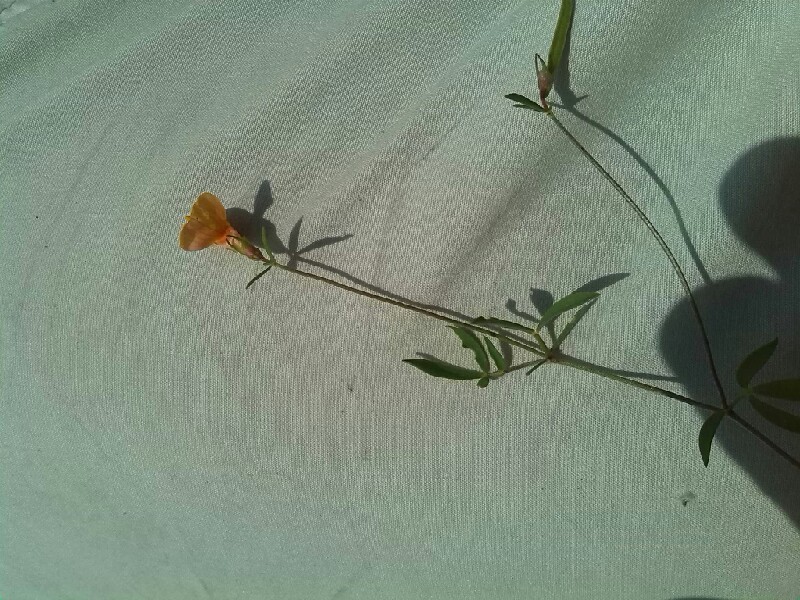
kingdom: Plantae
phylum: Tracheophyta
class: Magnoliopsida
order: Fabales
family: Fabaceae
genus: Lotus
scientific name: Lotus tenuis
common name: Narrow-leaved bird's-foot-trefoil
